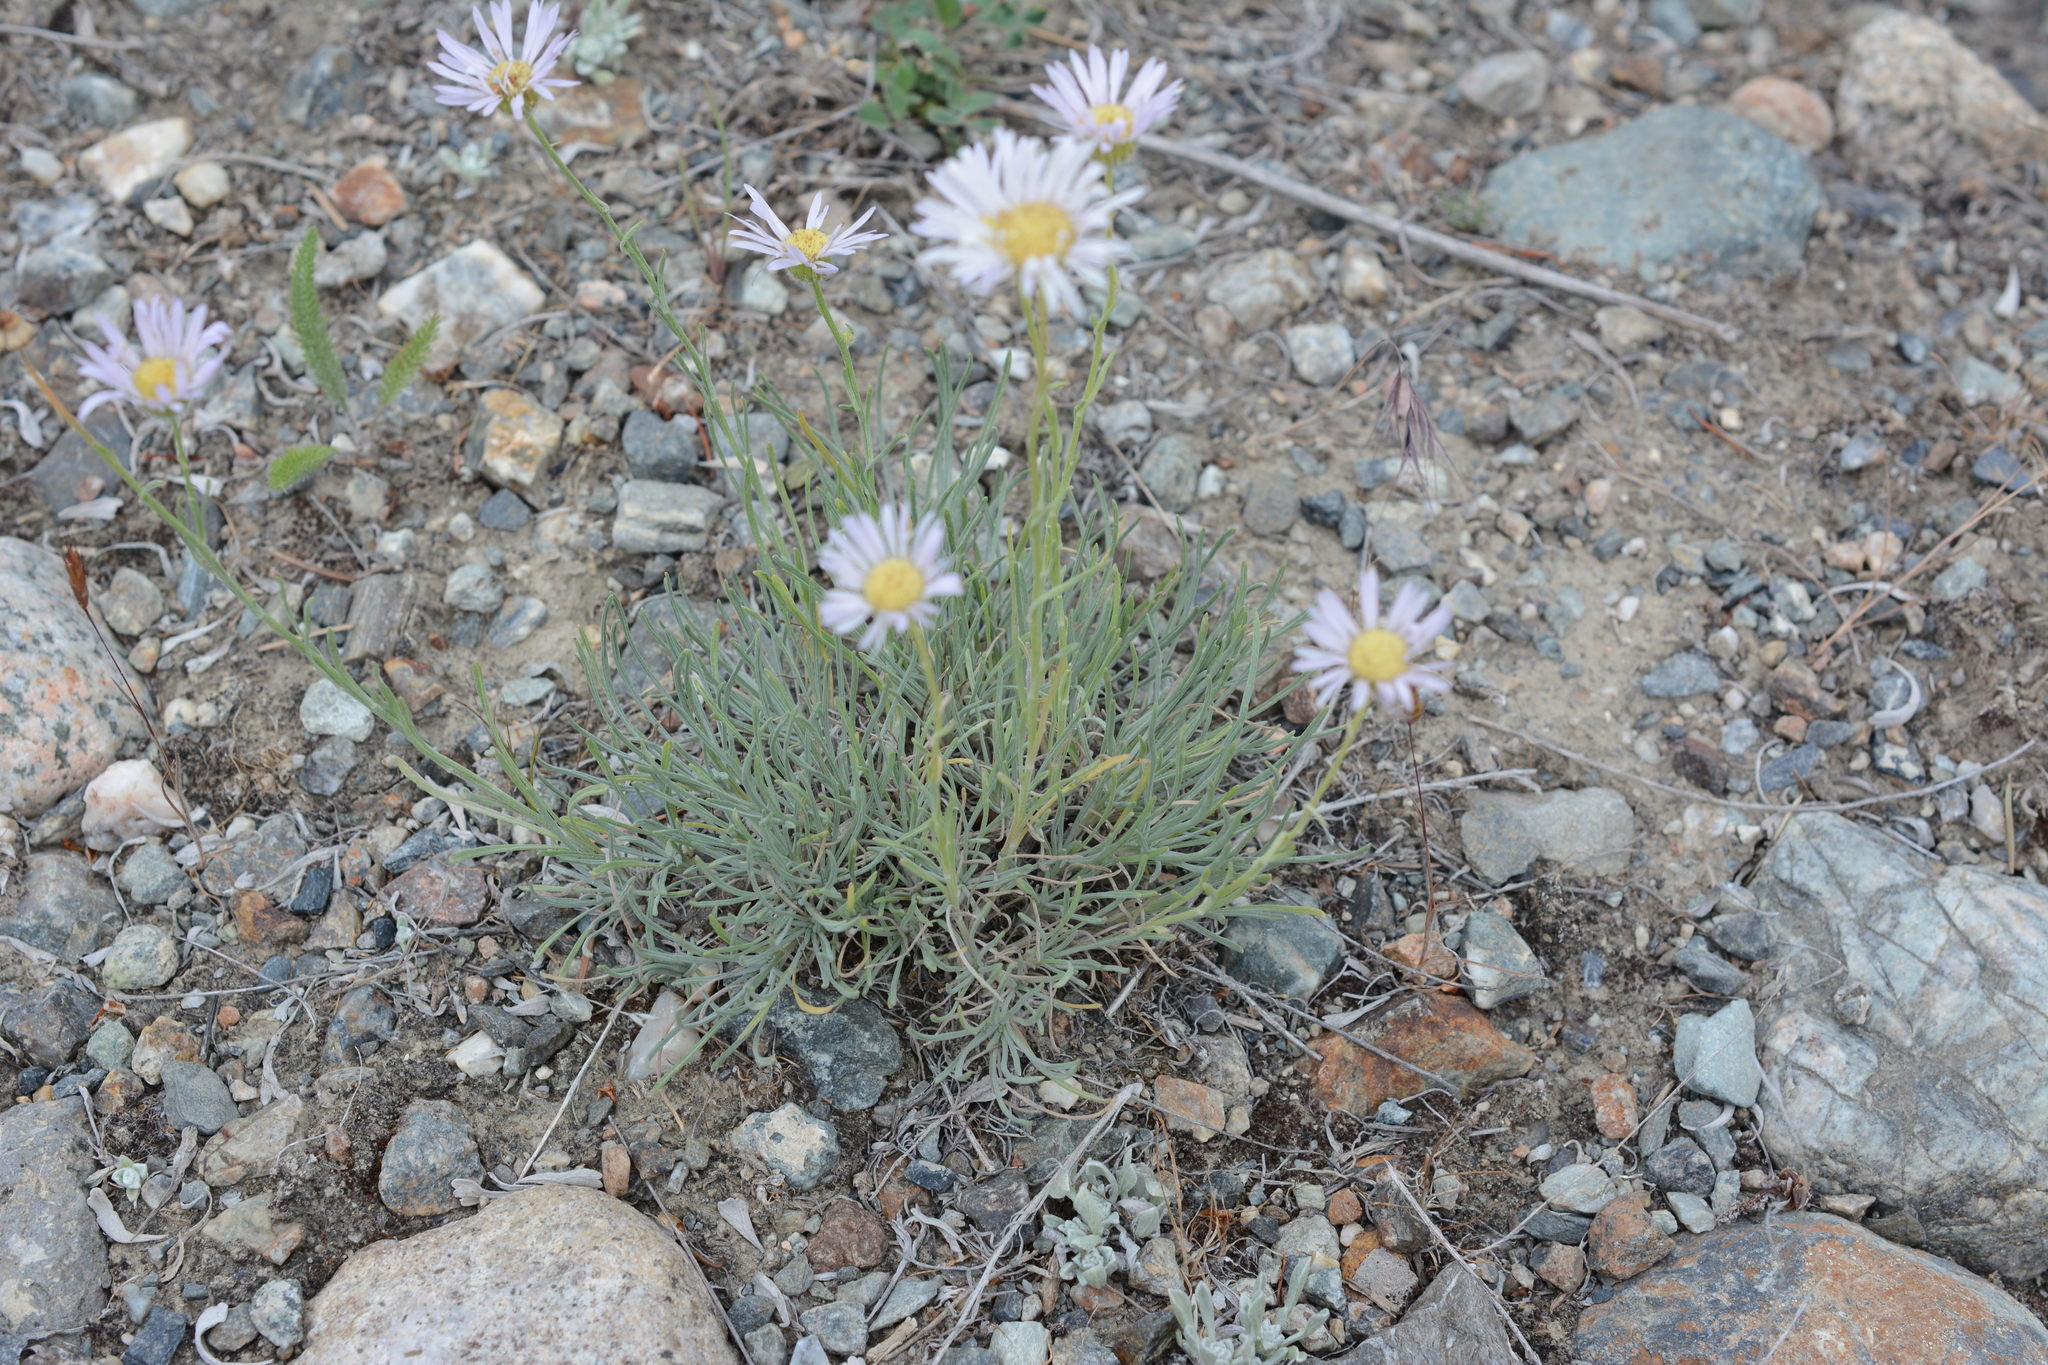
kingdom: Plantae
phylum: Tracheophyta
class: Magnoliopsida
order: Asterales
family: Asteraceae
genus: Erigeron
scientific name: Erigeron filifolius
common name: Threadleaf fleabane
